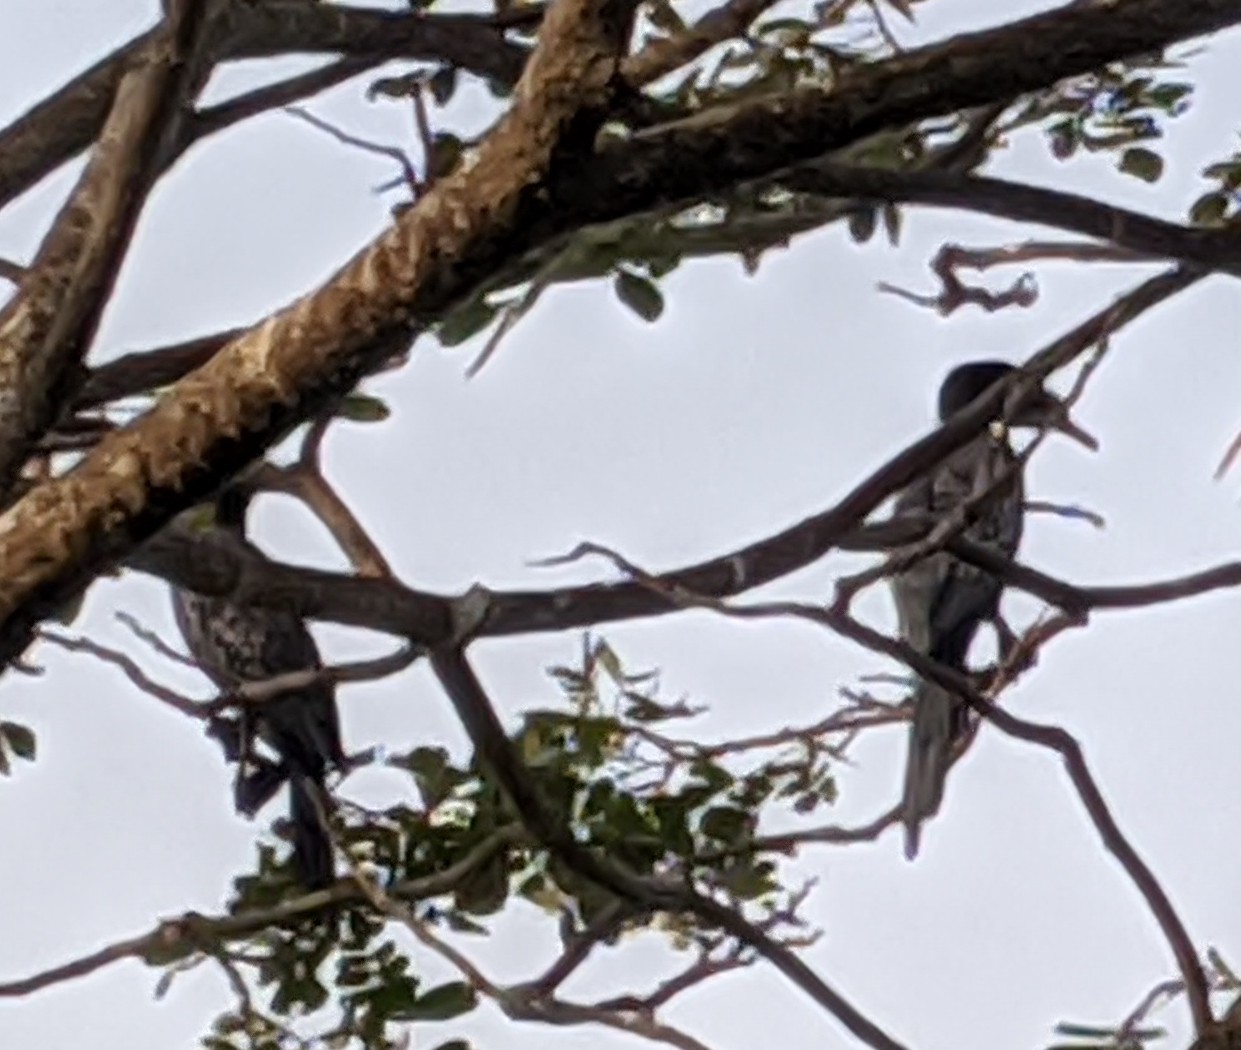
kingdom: Animalia
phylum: Chordata
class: Aves
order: Suliformes
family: Phalacrocoracidae
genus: Microcarbo
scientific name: Microcarbo africanus
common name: Long-tailed cormorant
